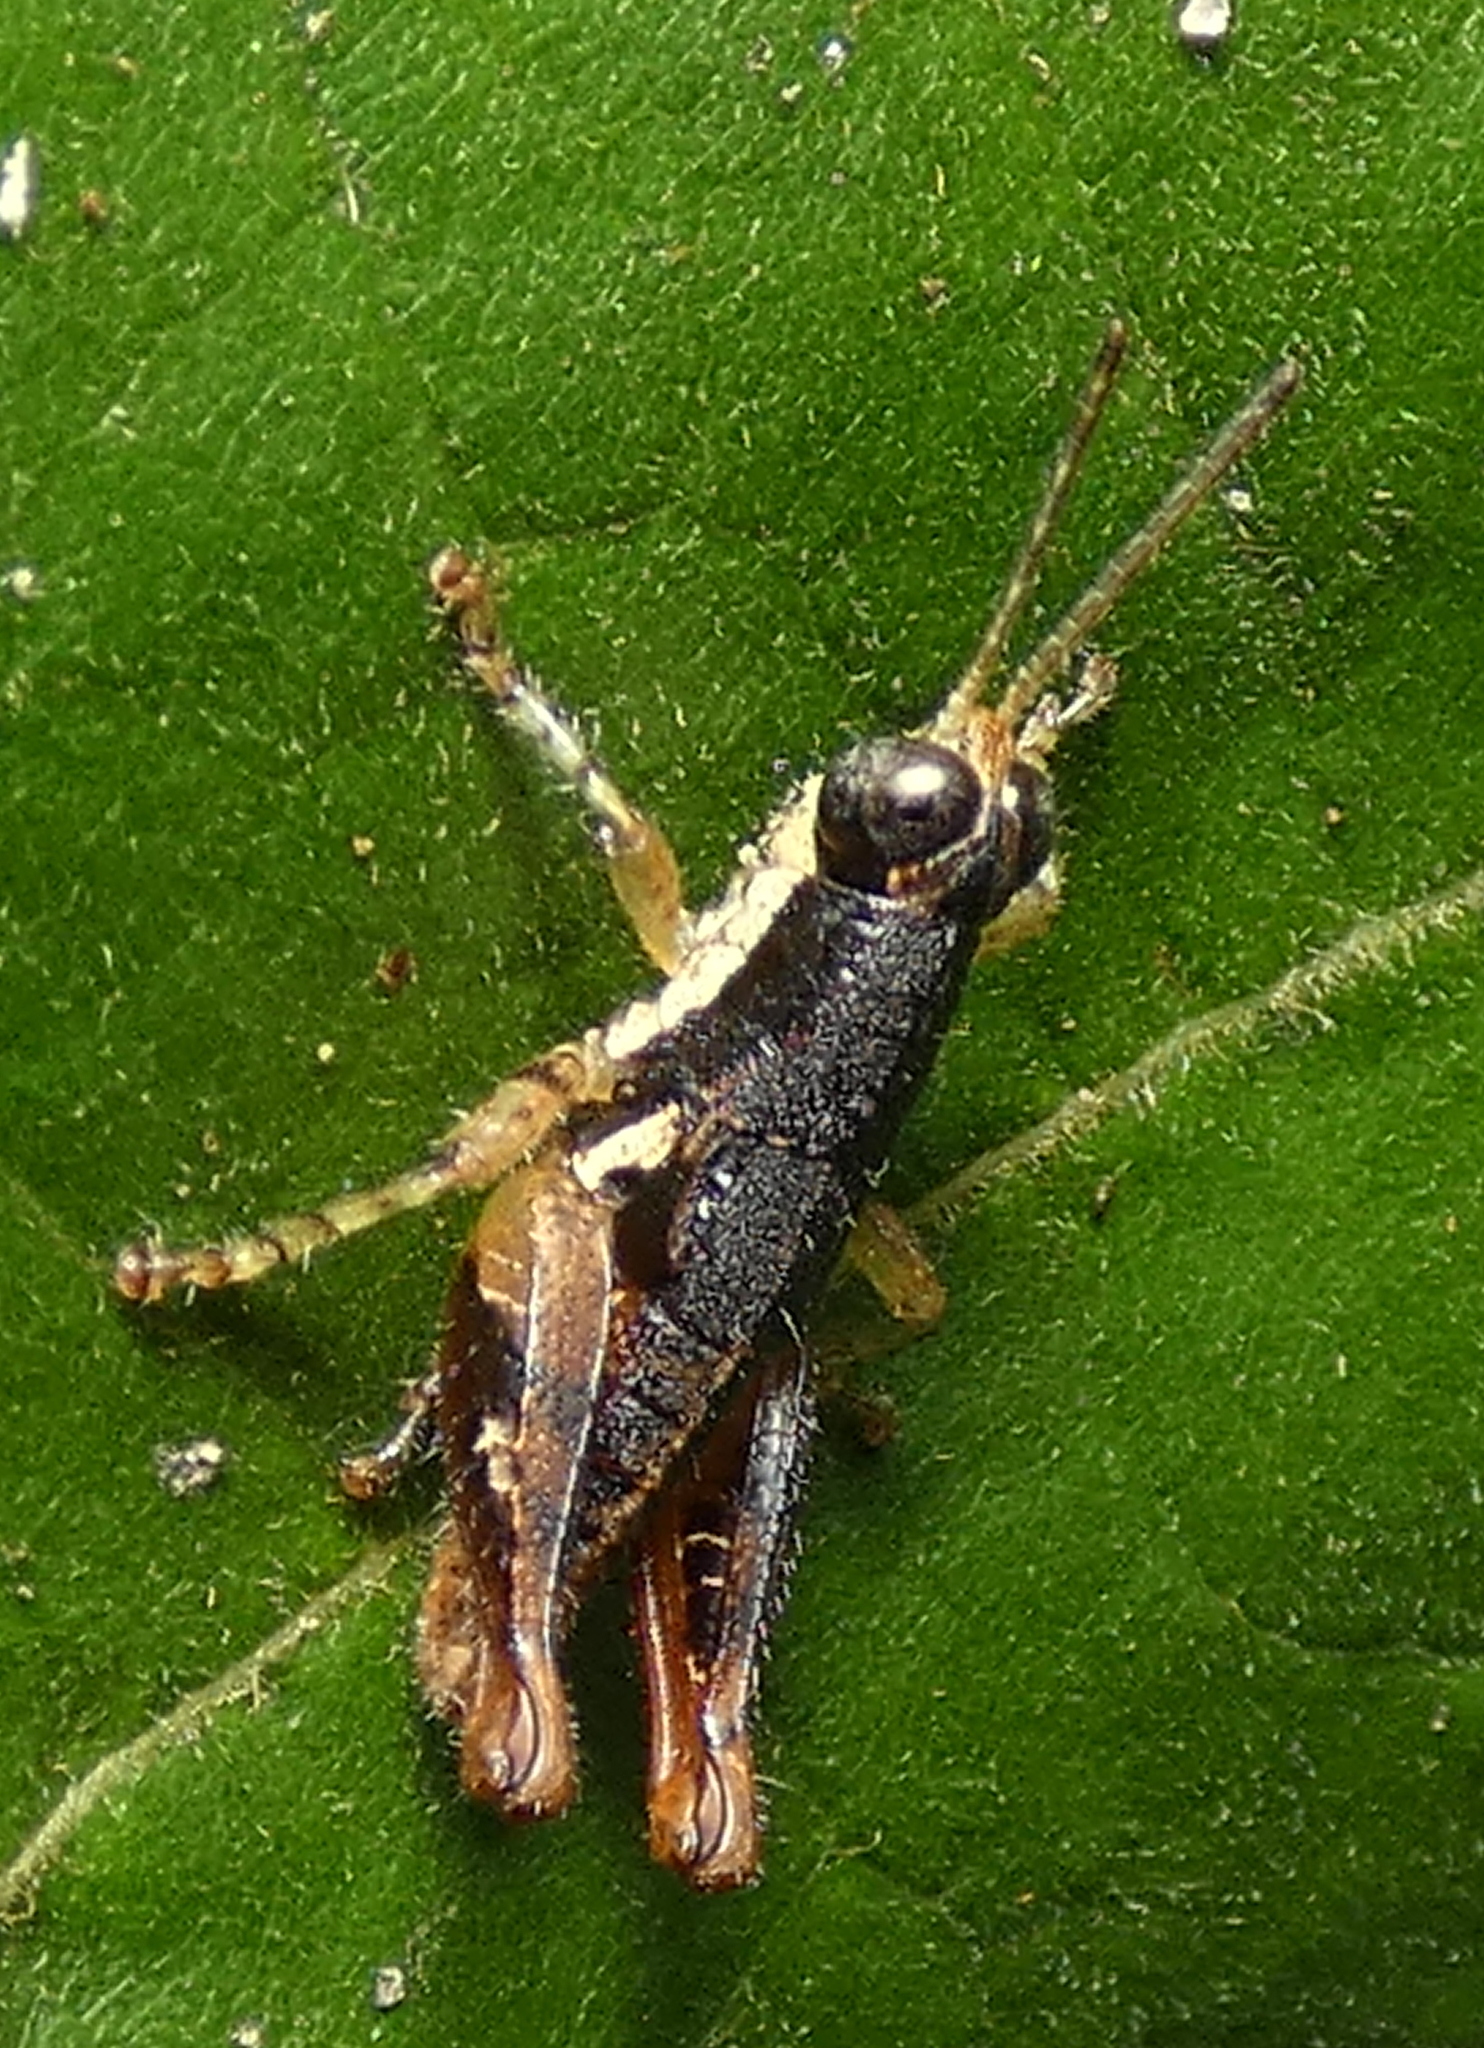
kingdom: Animalia
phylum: Arthropoda
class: Insecta
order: Orthoptera
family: Acrididae
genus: Eujivarus
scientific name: Eujivarus meridionalis
